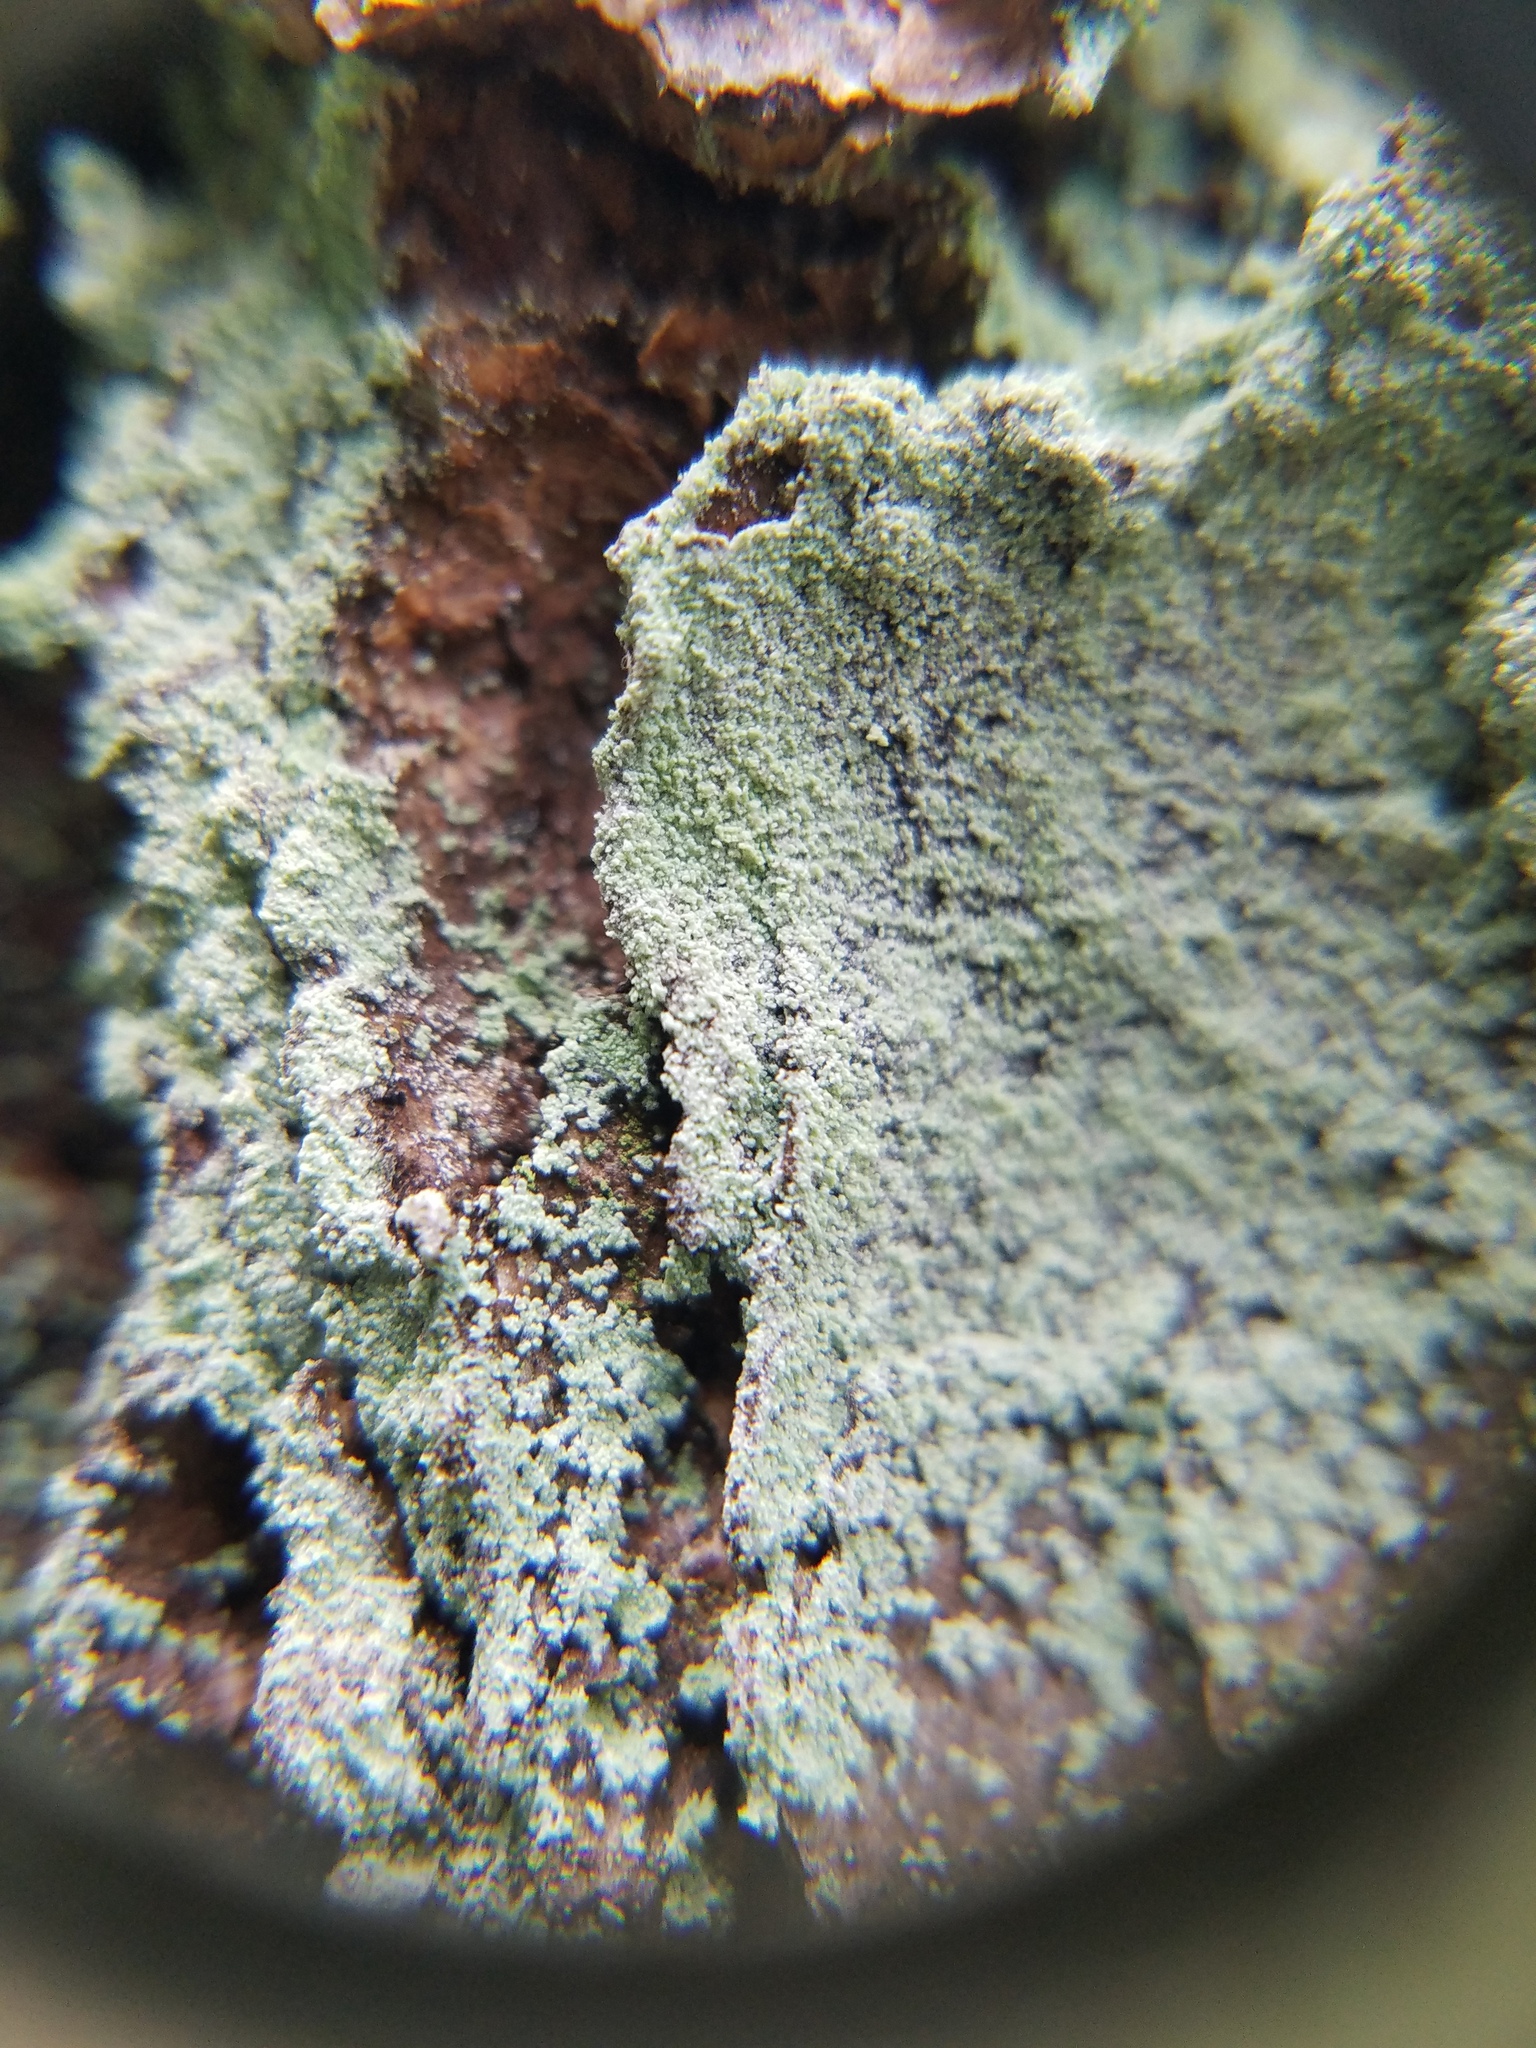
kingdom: Fungi
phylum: Ascomycota
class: Lecanoromycetes
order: Lecanorales
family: Stereocaulaceae
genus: Lepraria
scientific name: Lepraria harrisiana
